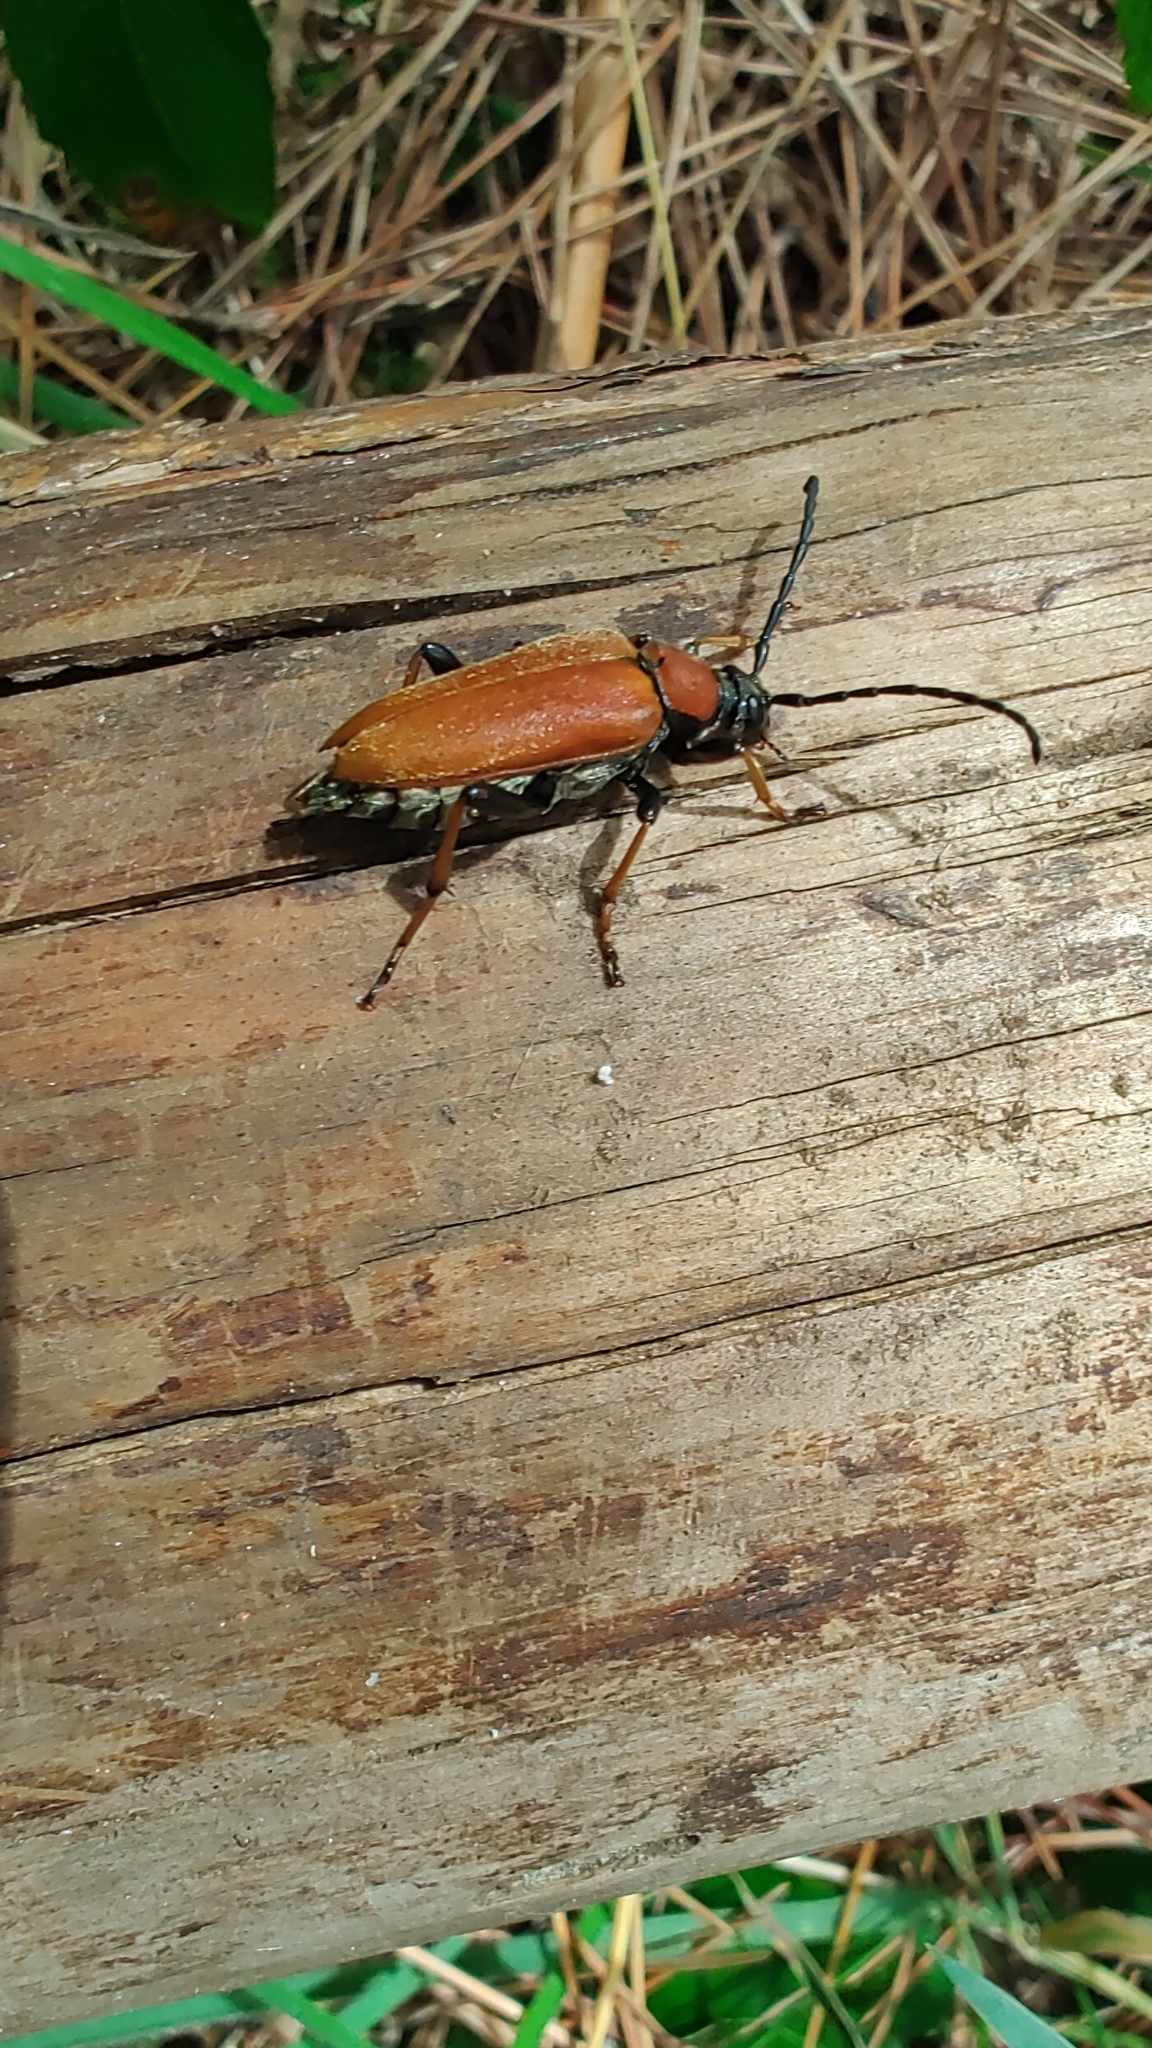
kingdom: Animalia
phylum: Arthropoda
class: Insecta
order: Coleoptera
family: Cerambycidae
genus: Stictoleptura
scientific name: Stictoleptura rubra
